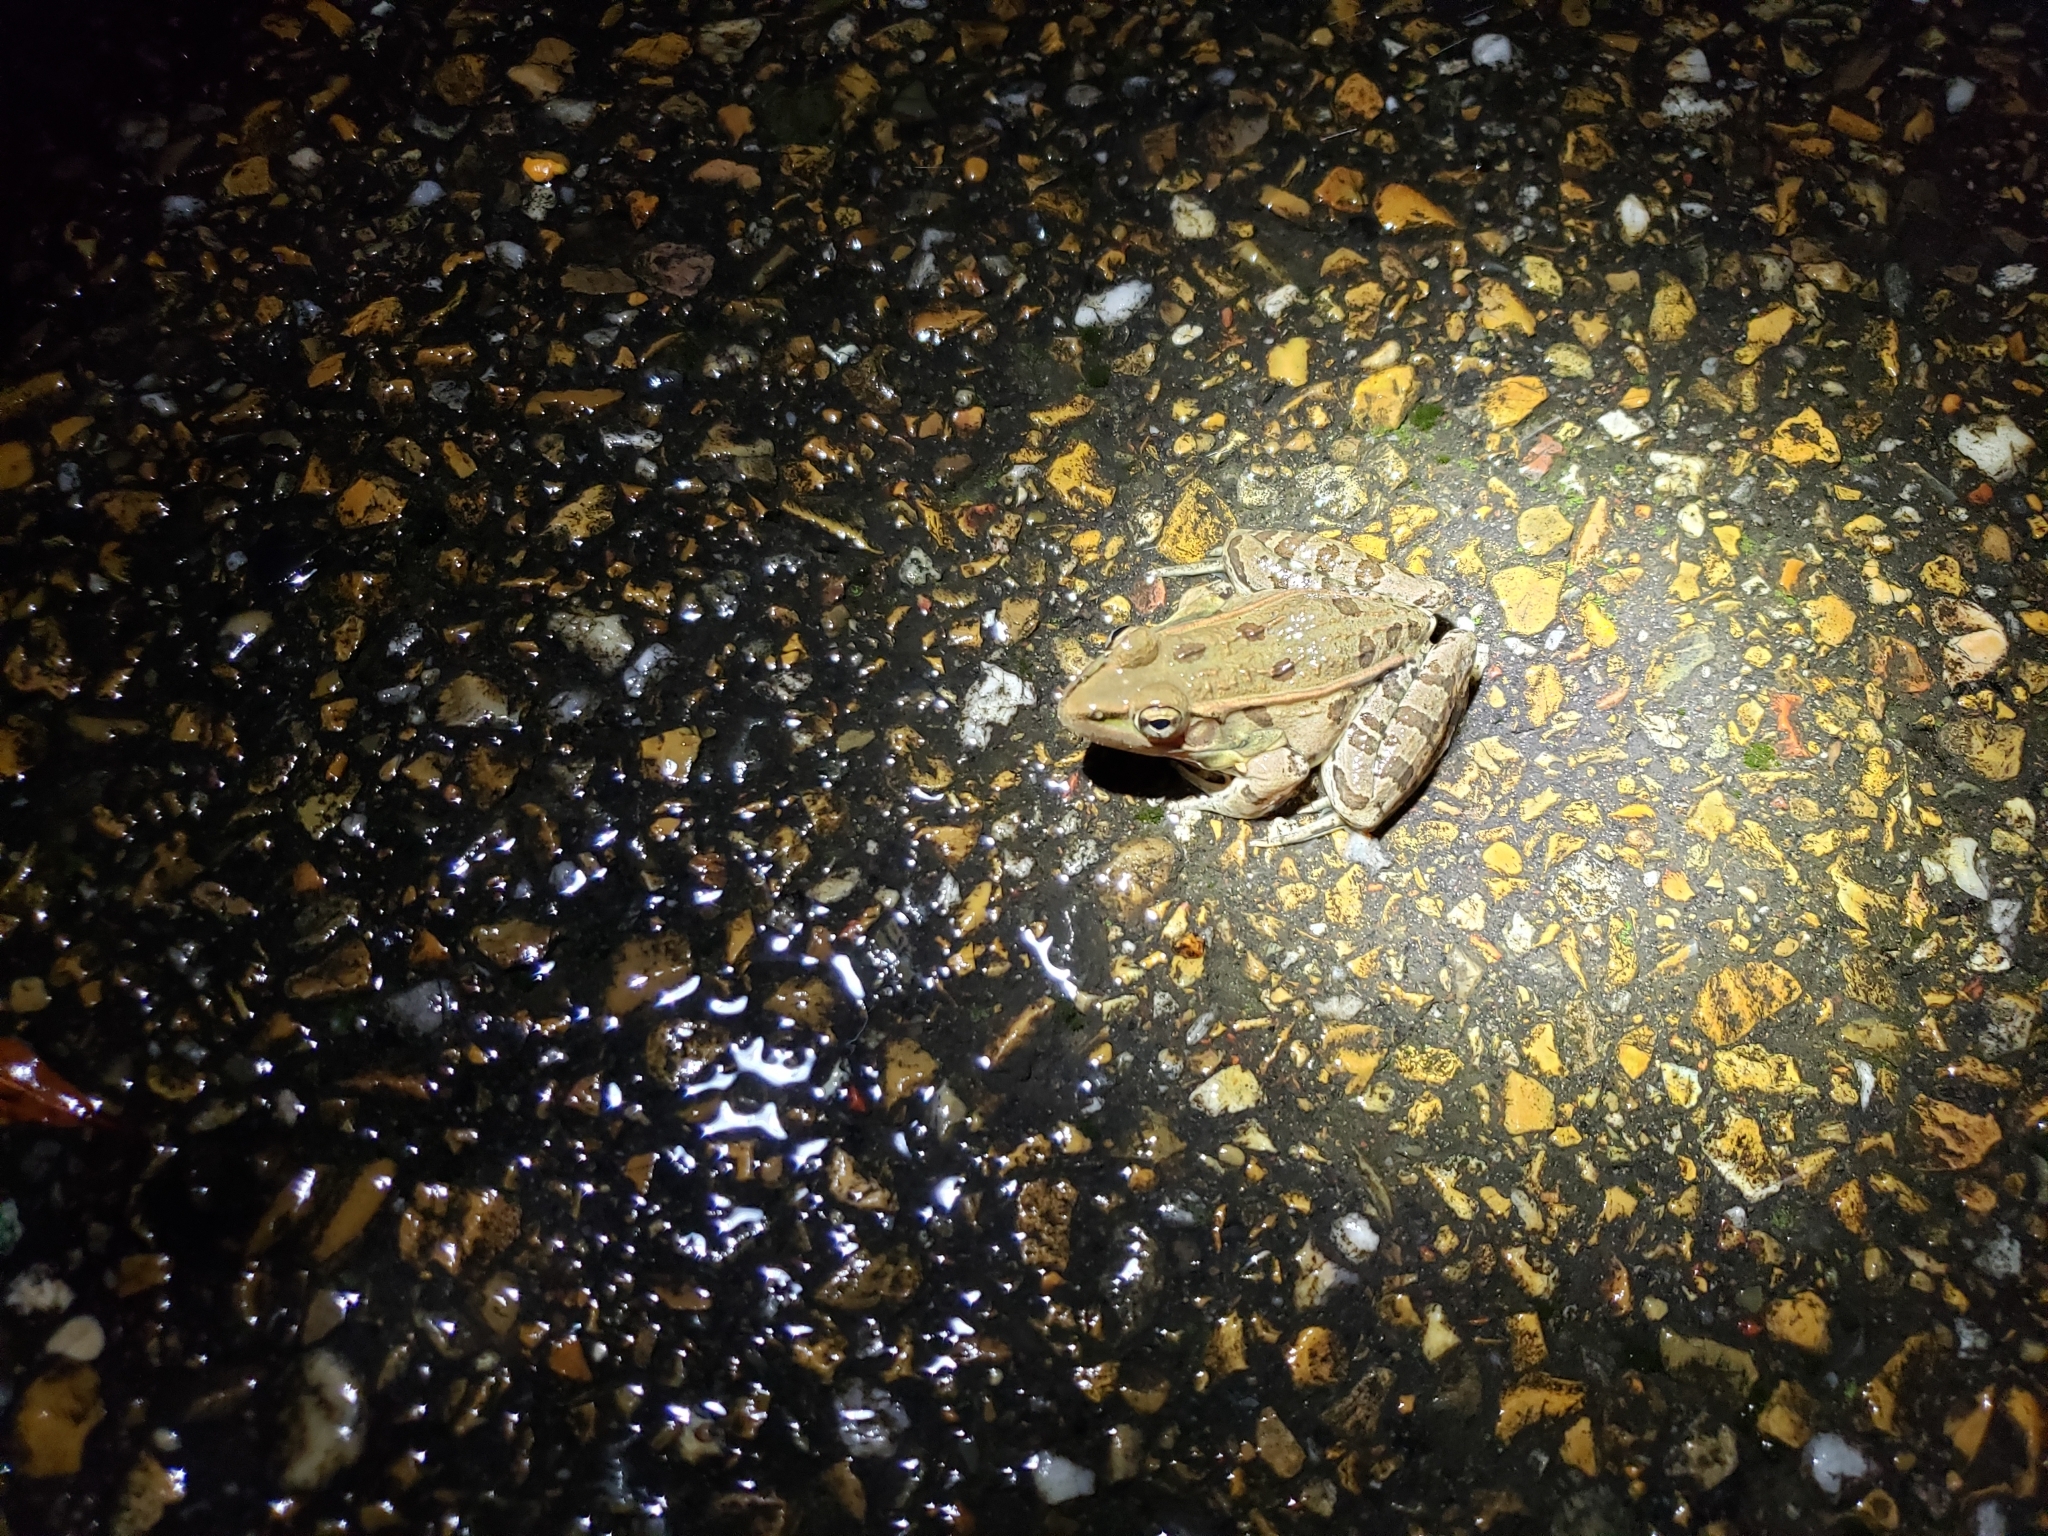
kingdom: Animalia
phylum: Chordata
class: Amphibia
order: Anura
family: Ranidae
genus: Lithobates
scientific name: Lithobates sphenocephalus
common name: Southern leopard frog
